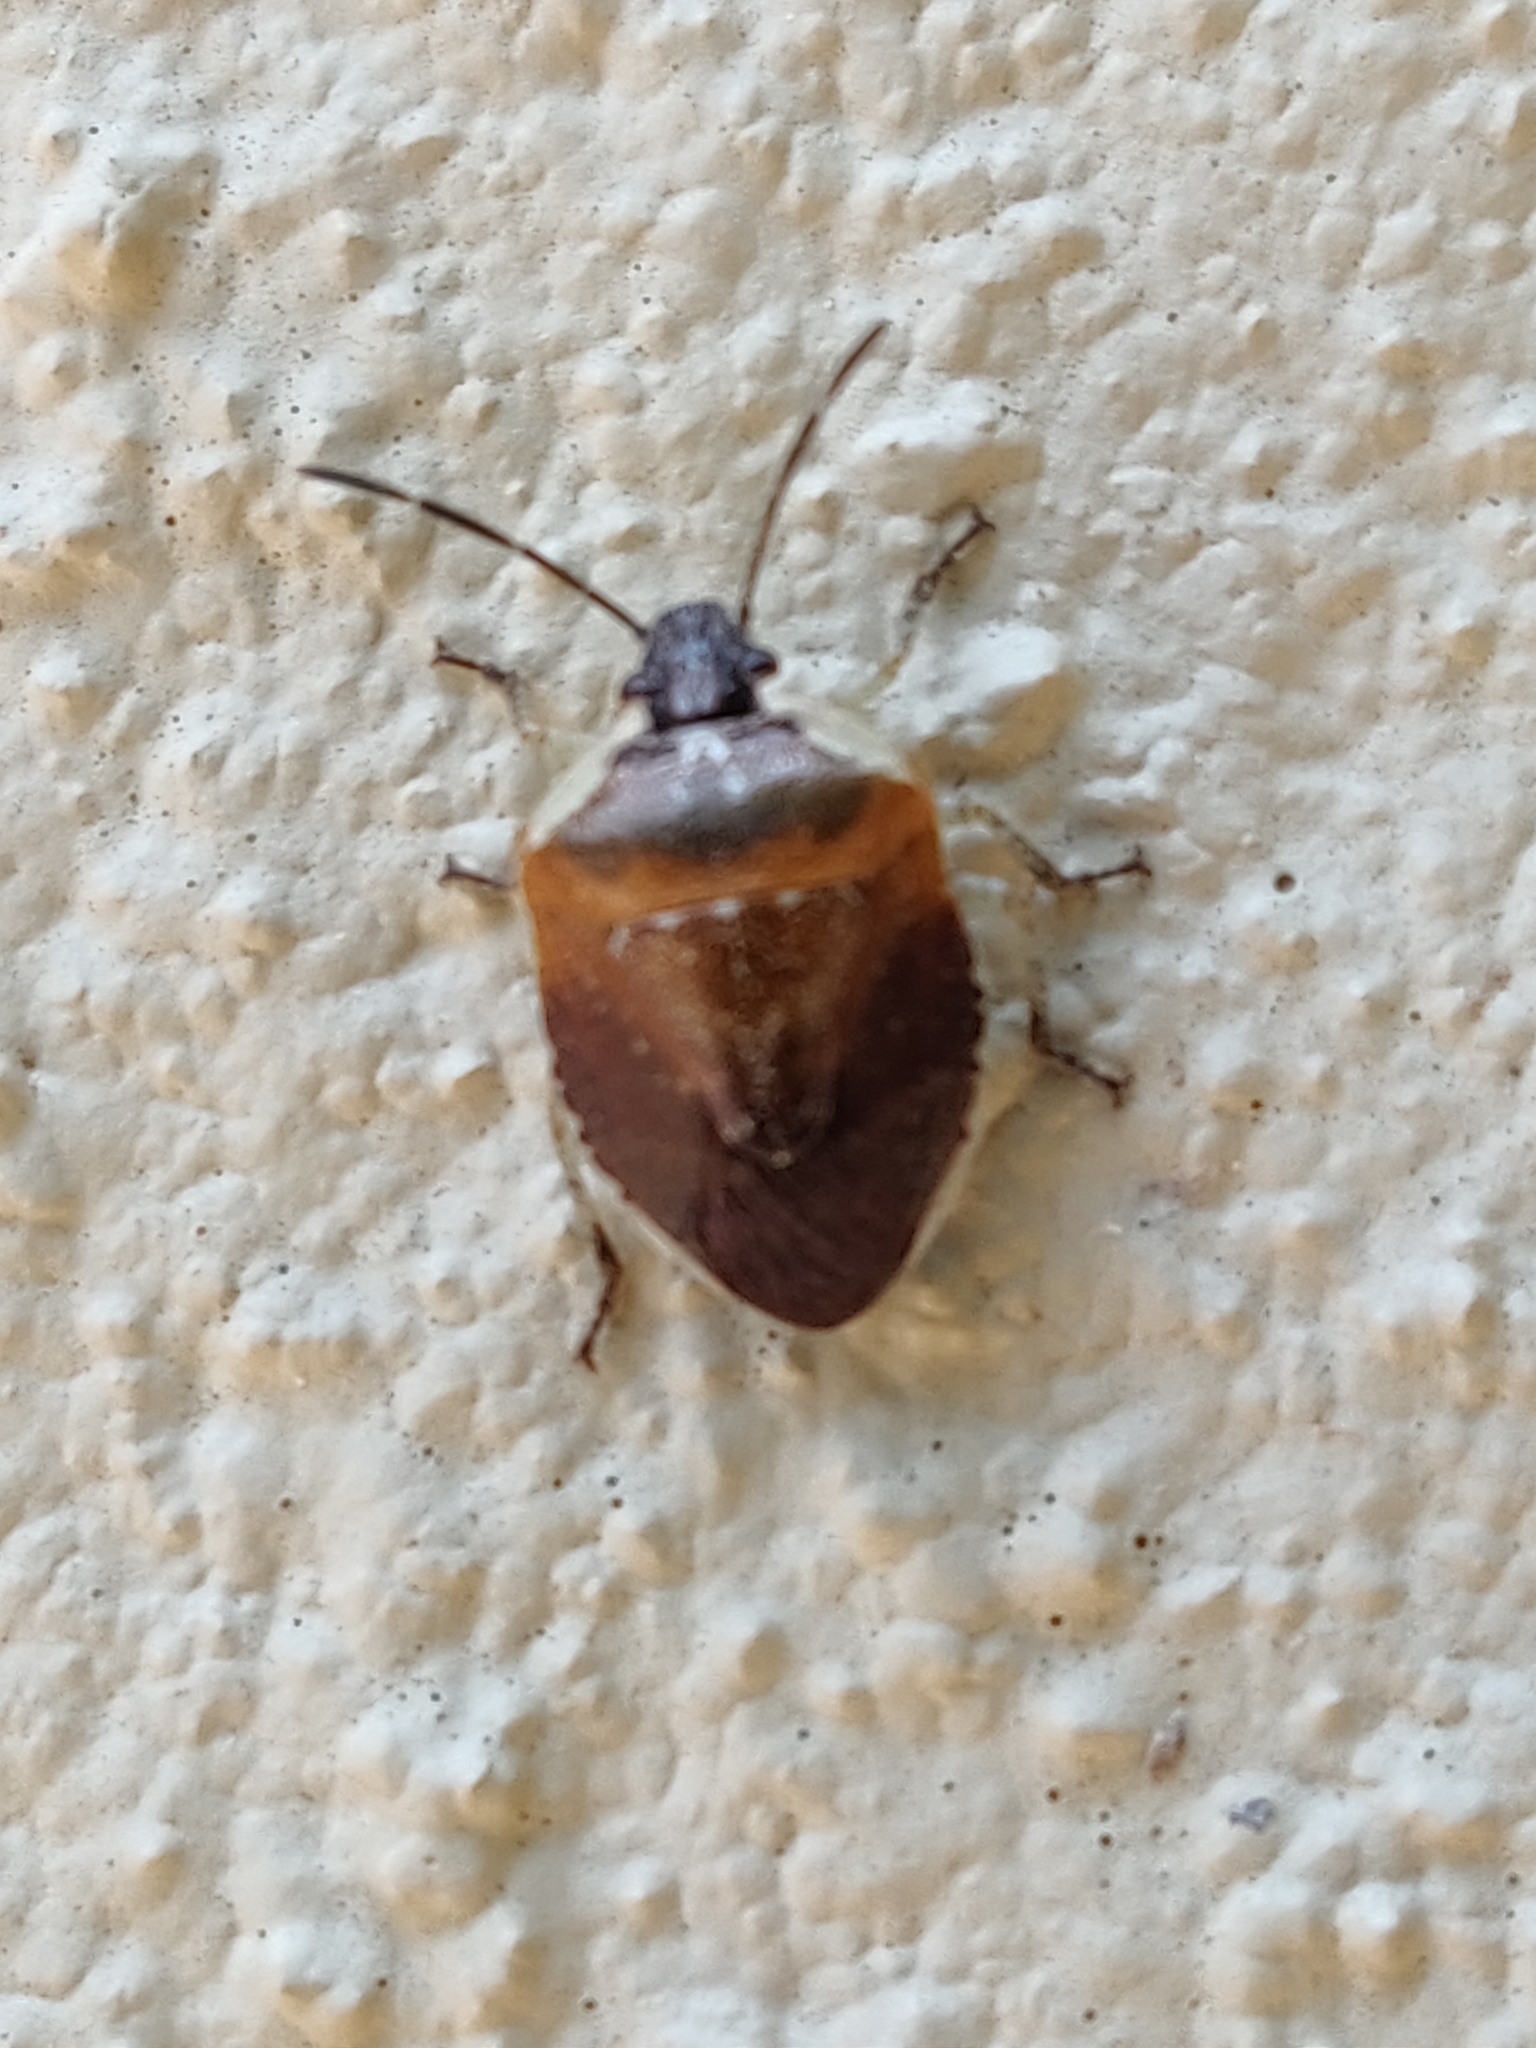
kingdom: Animalia
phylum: Arthropoda
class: Insecta
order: Hemiptera
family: Pentatomidae
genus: Monteithiella
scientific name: Monteithiella
